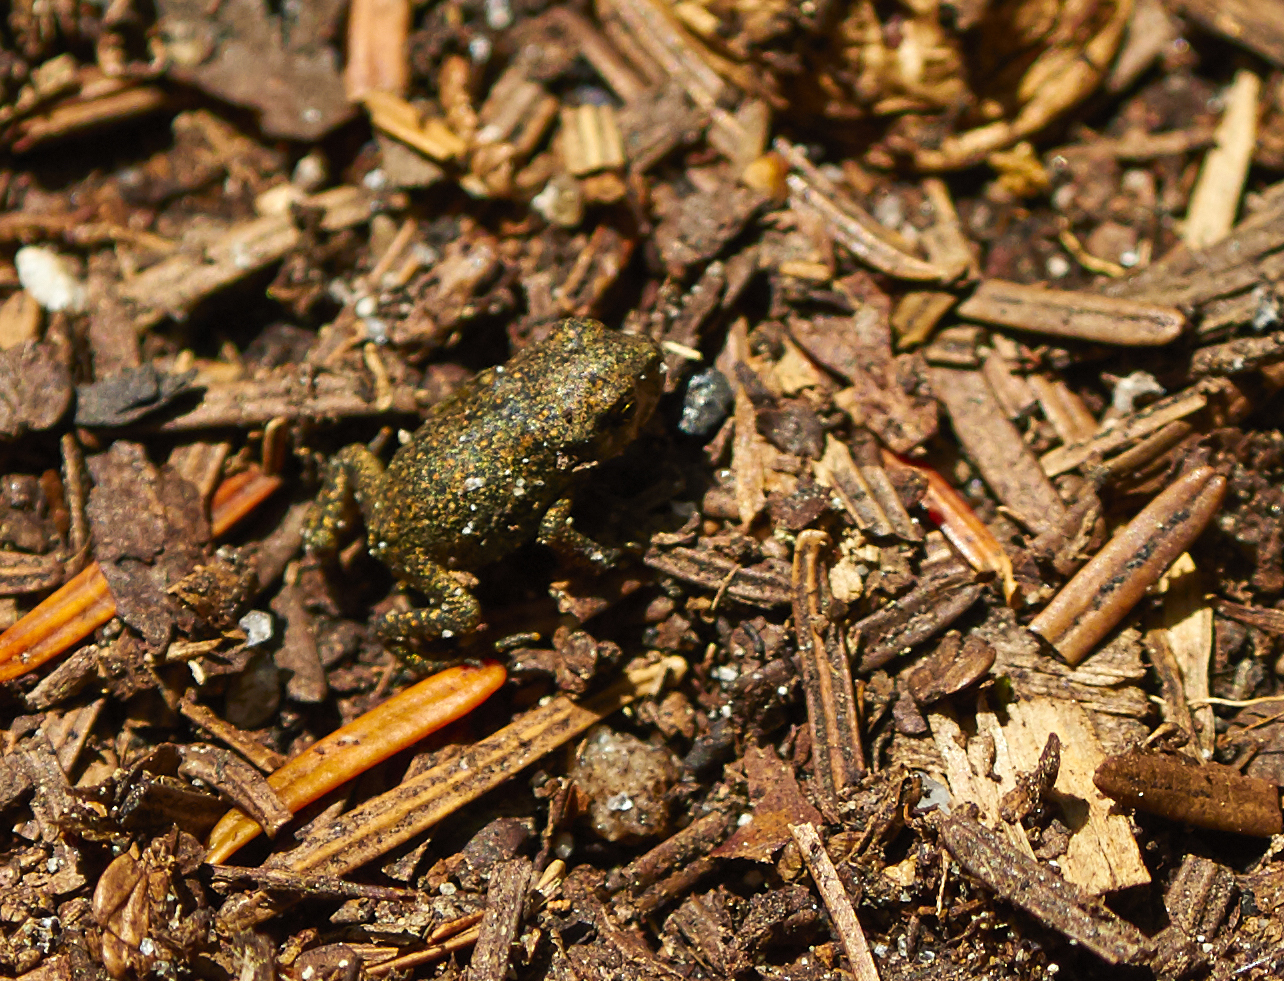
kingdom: Animalia
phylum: Chordata
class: Amphibia
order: Anura
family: Bufonidae
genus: Anaxyrus
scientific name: Anaxyrus americanus
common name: American toad
